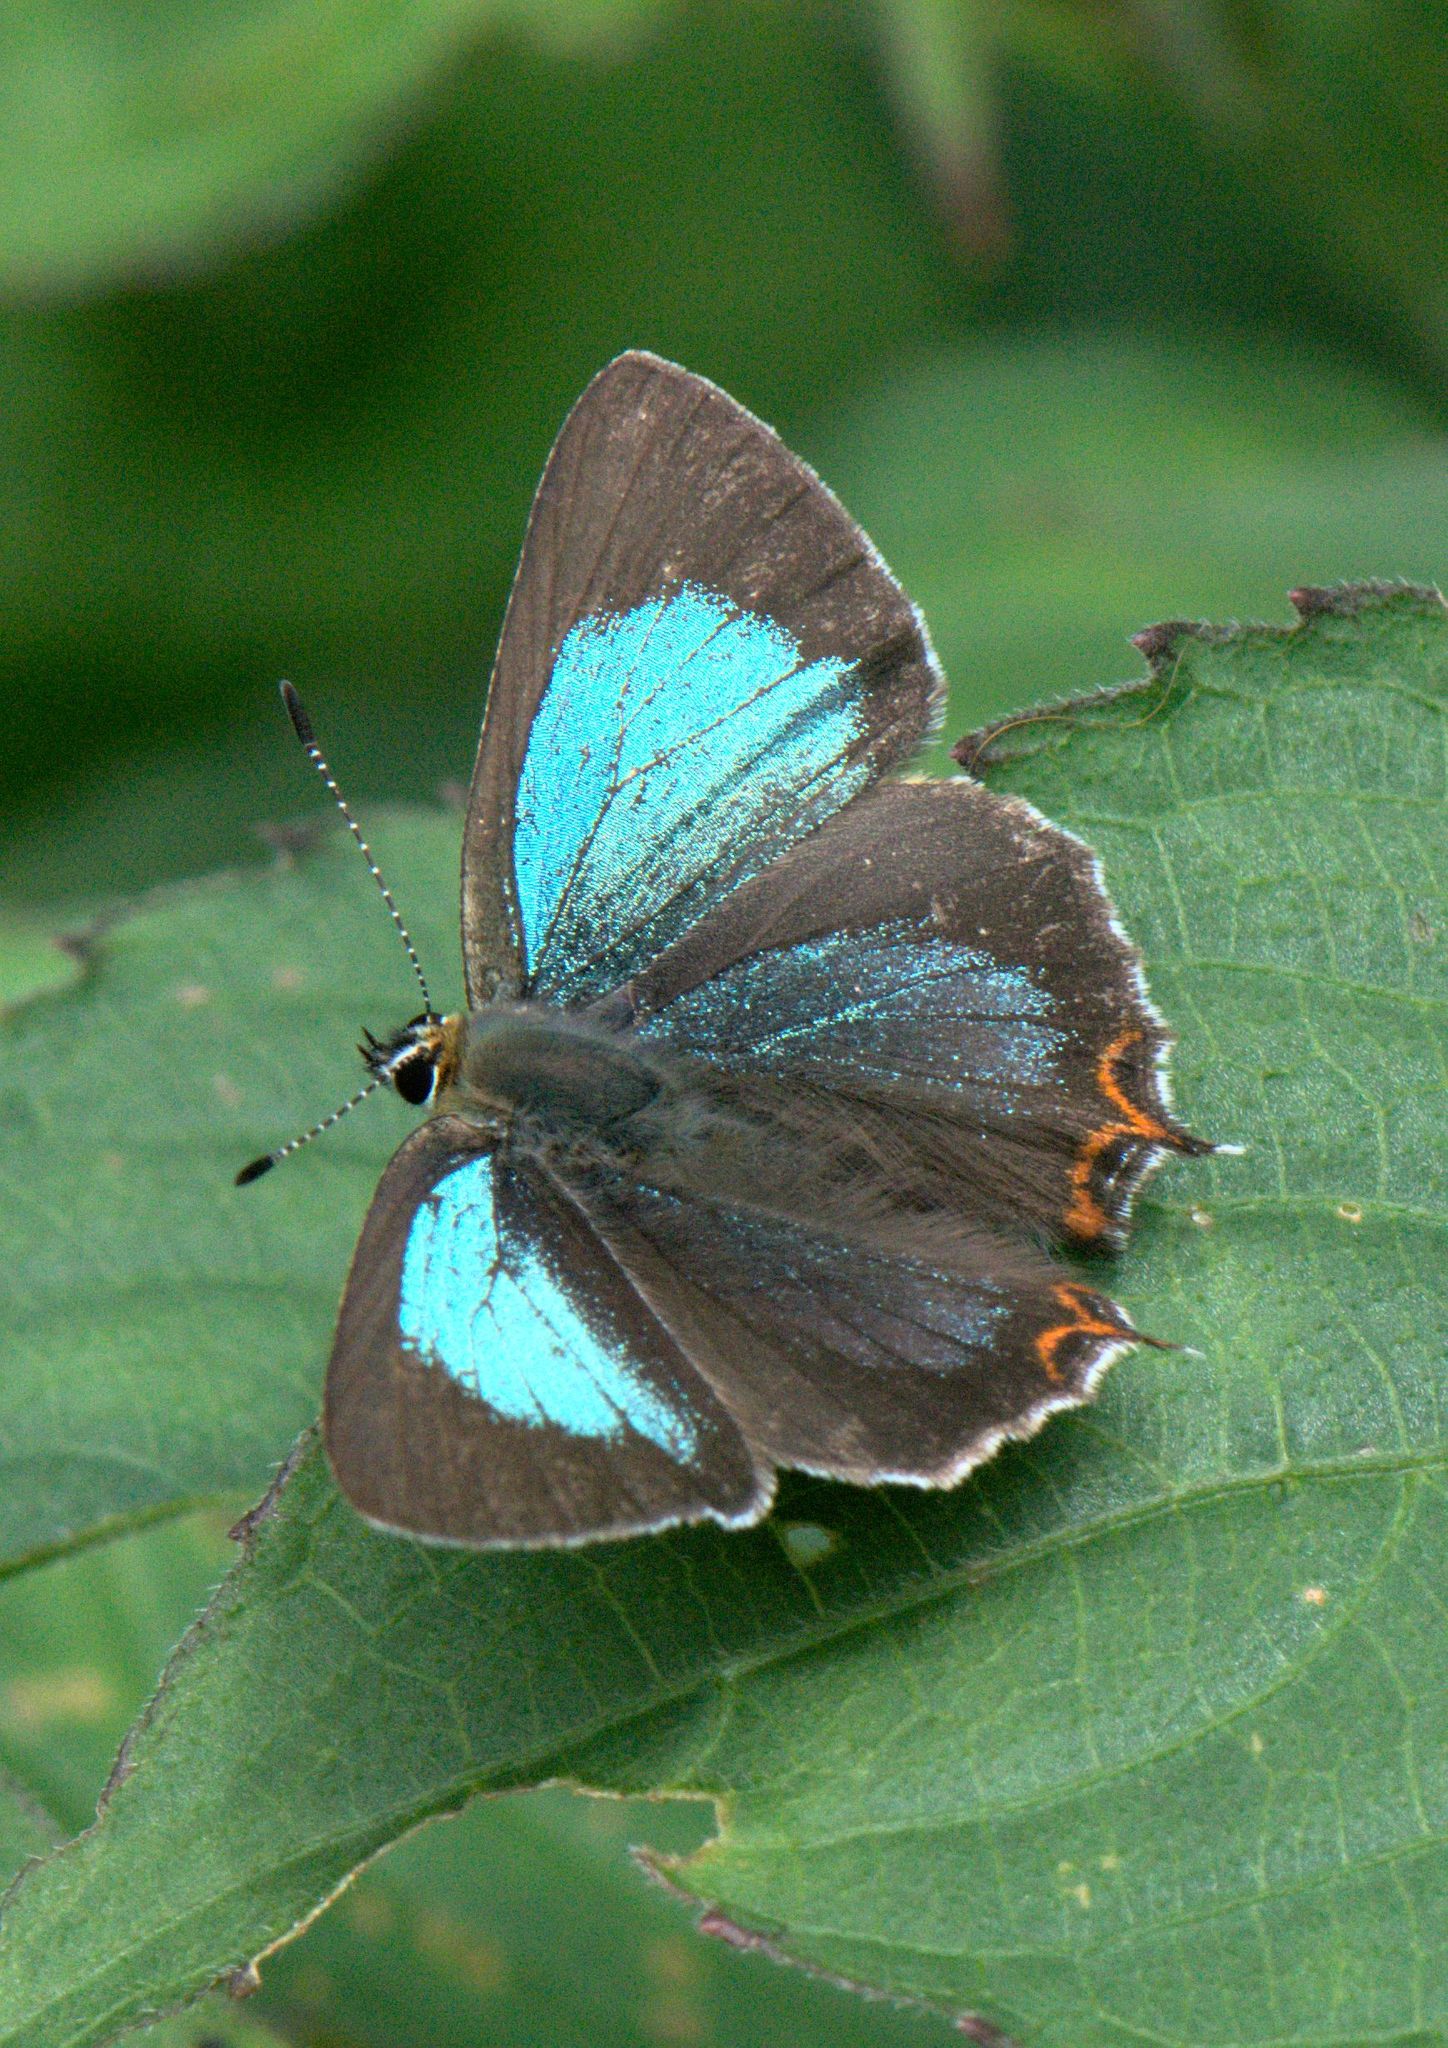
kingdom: Animalia
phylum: Arthropoda
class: Insecta
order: Lepidoptera
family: Lycaenidae
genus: Heliophorus
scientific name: Heliophorus
